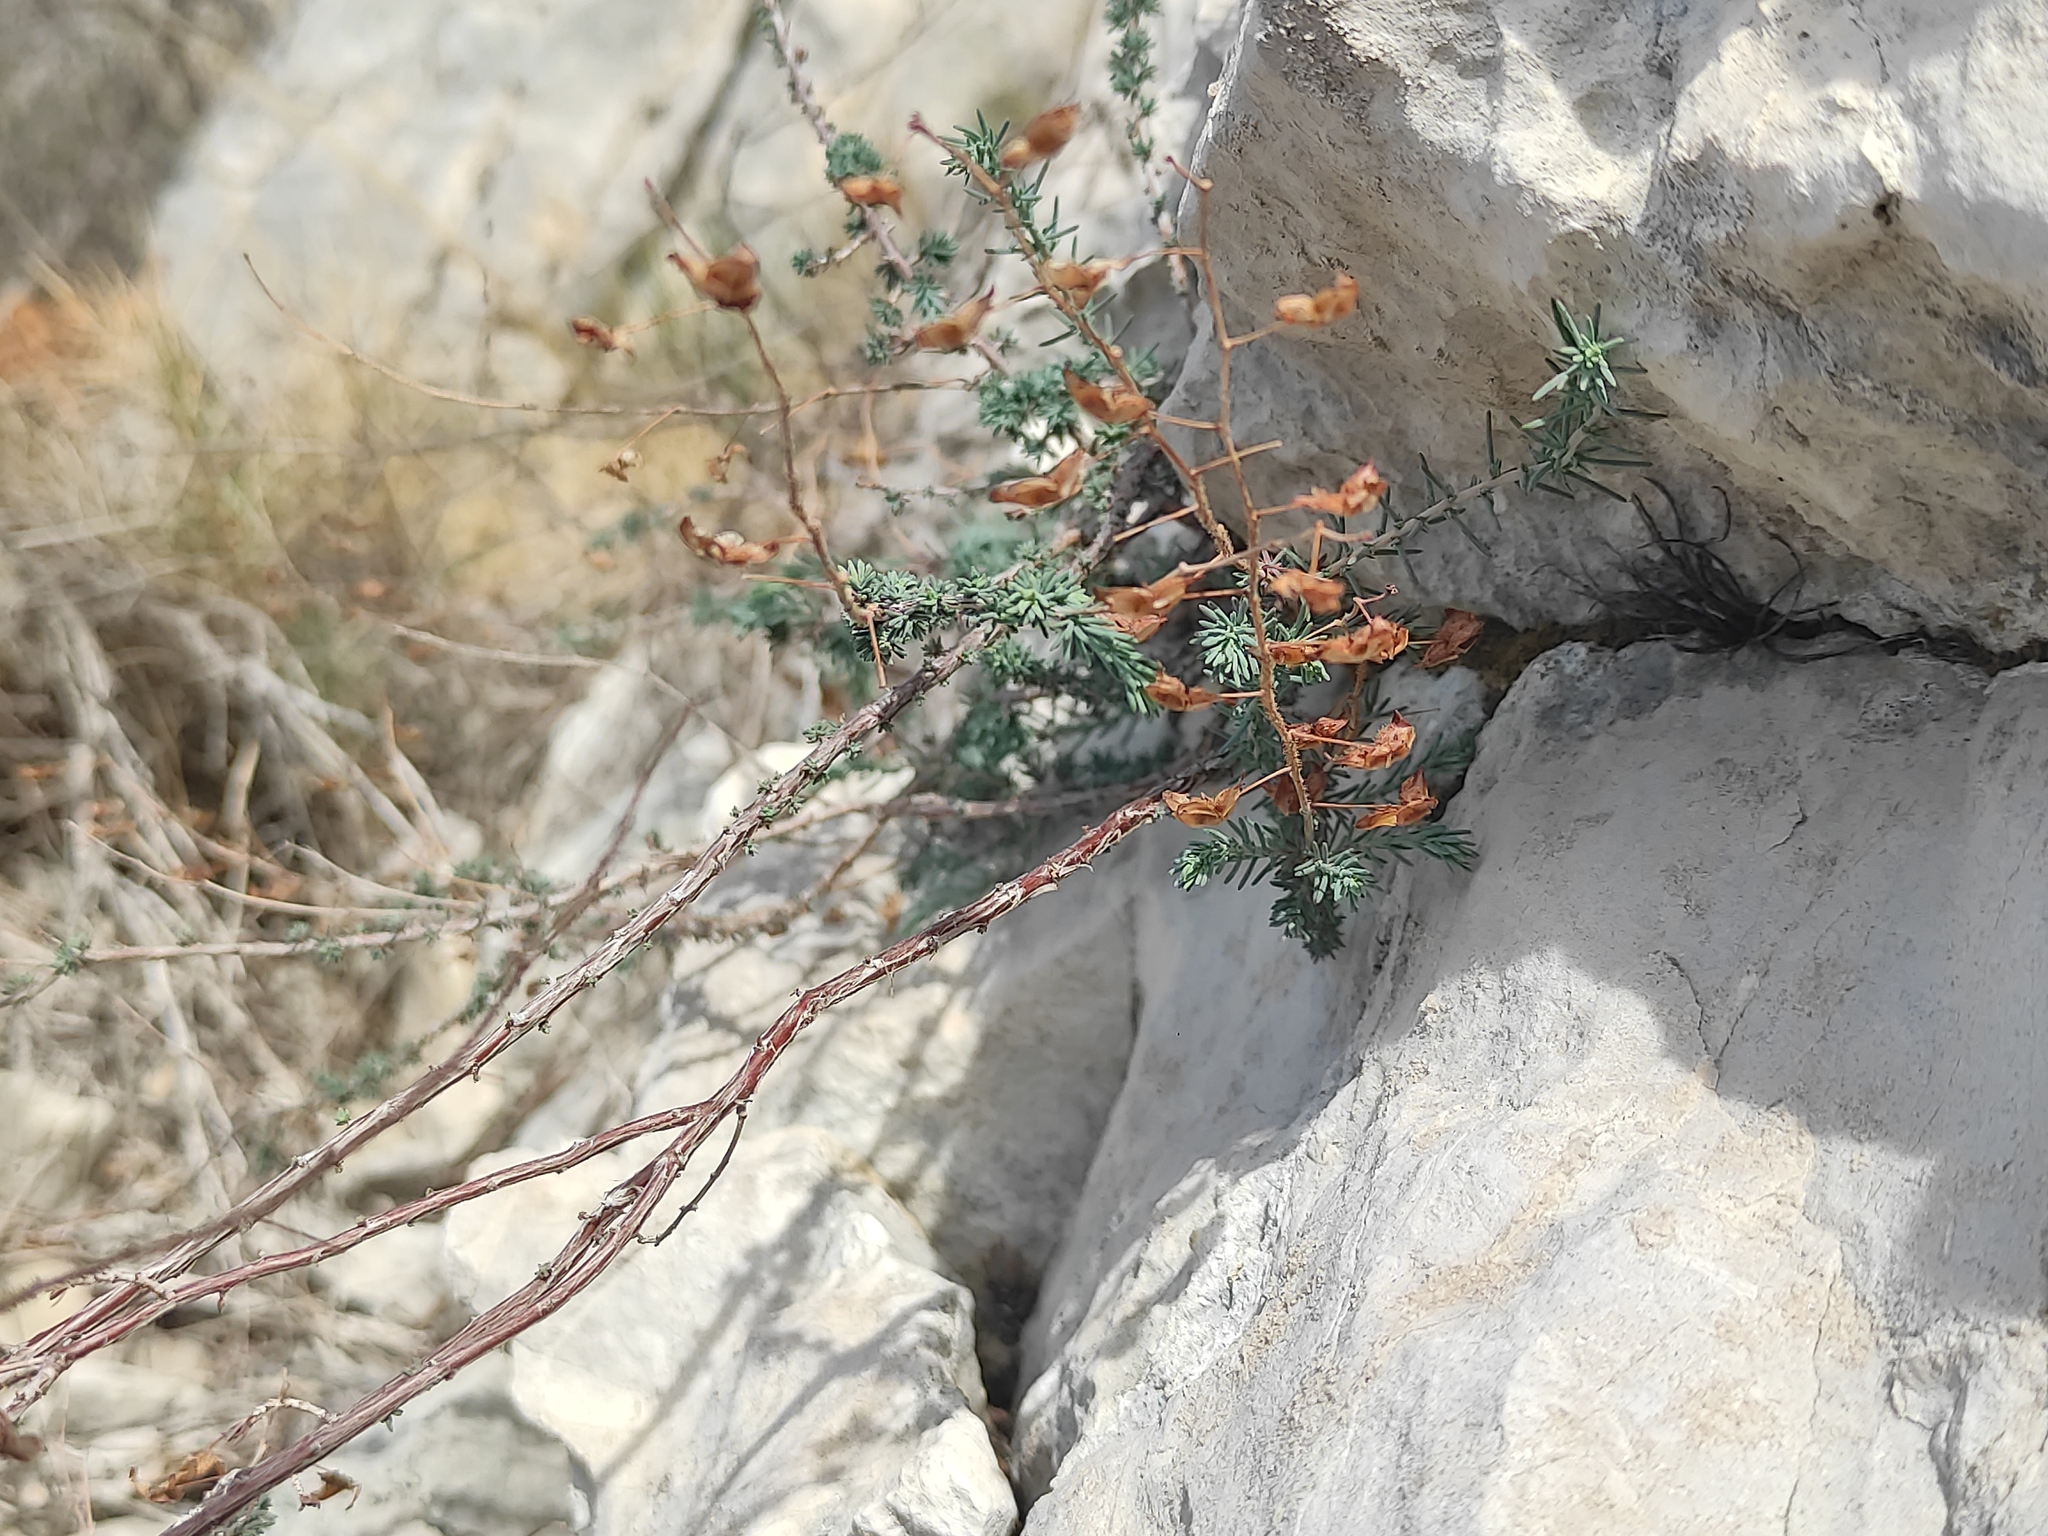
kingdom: Plantae
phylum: Tracheophyta
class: Magnoliopsida
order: Malvales
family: Cistaceae
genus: Fumana
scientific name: Fumana laevipes
